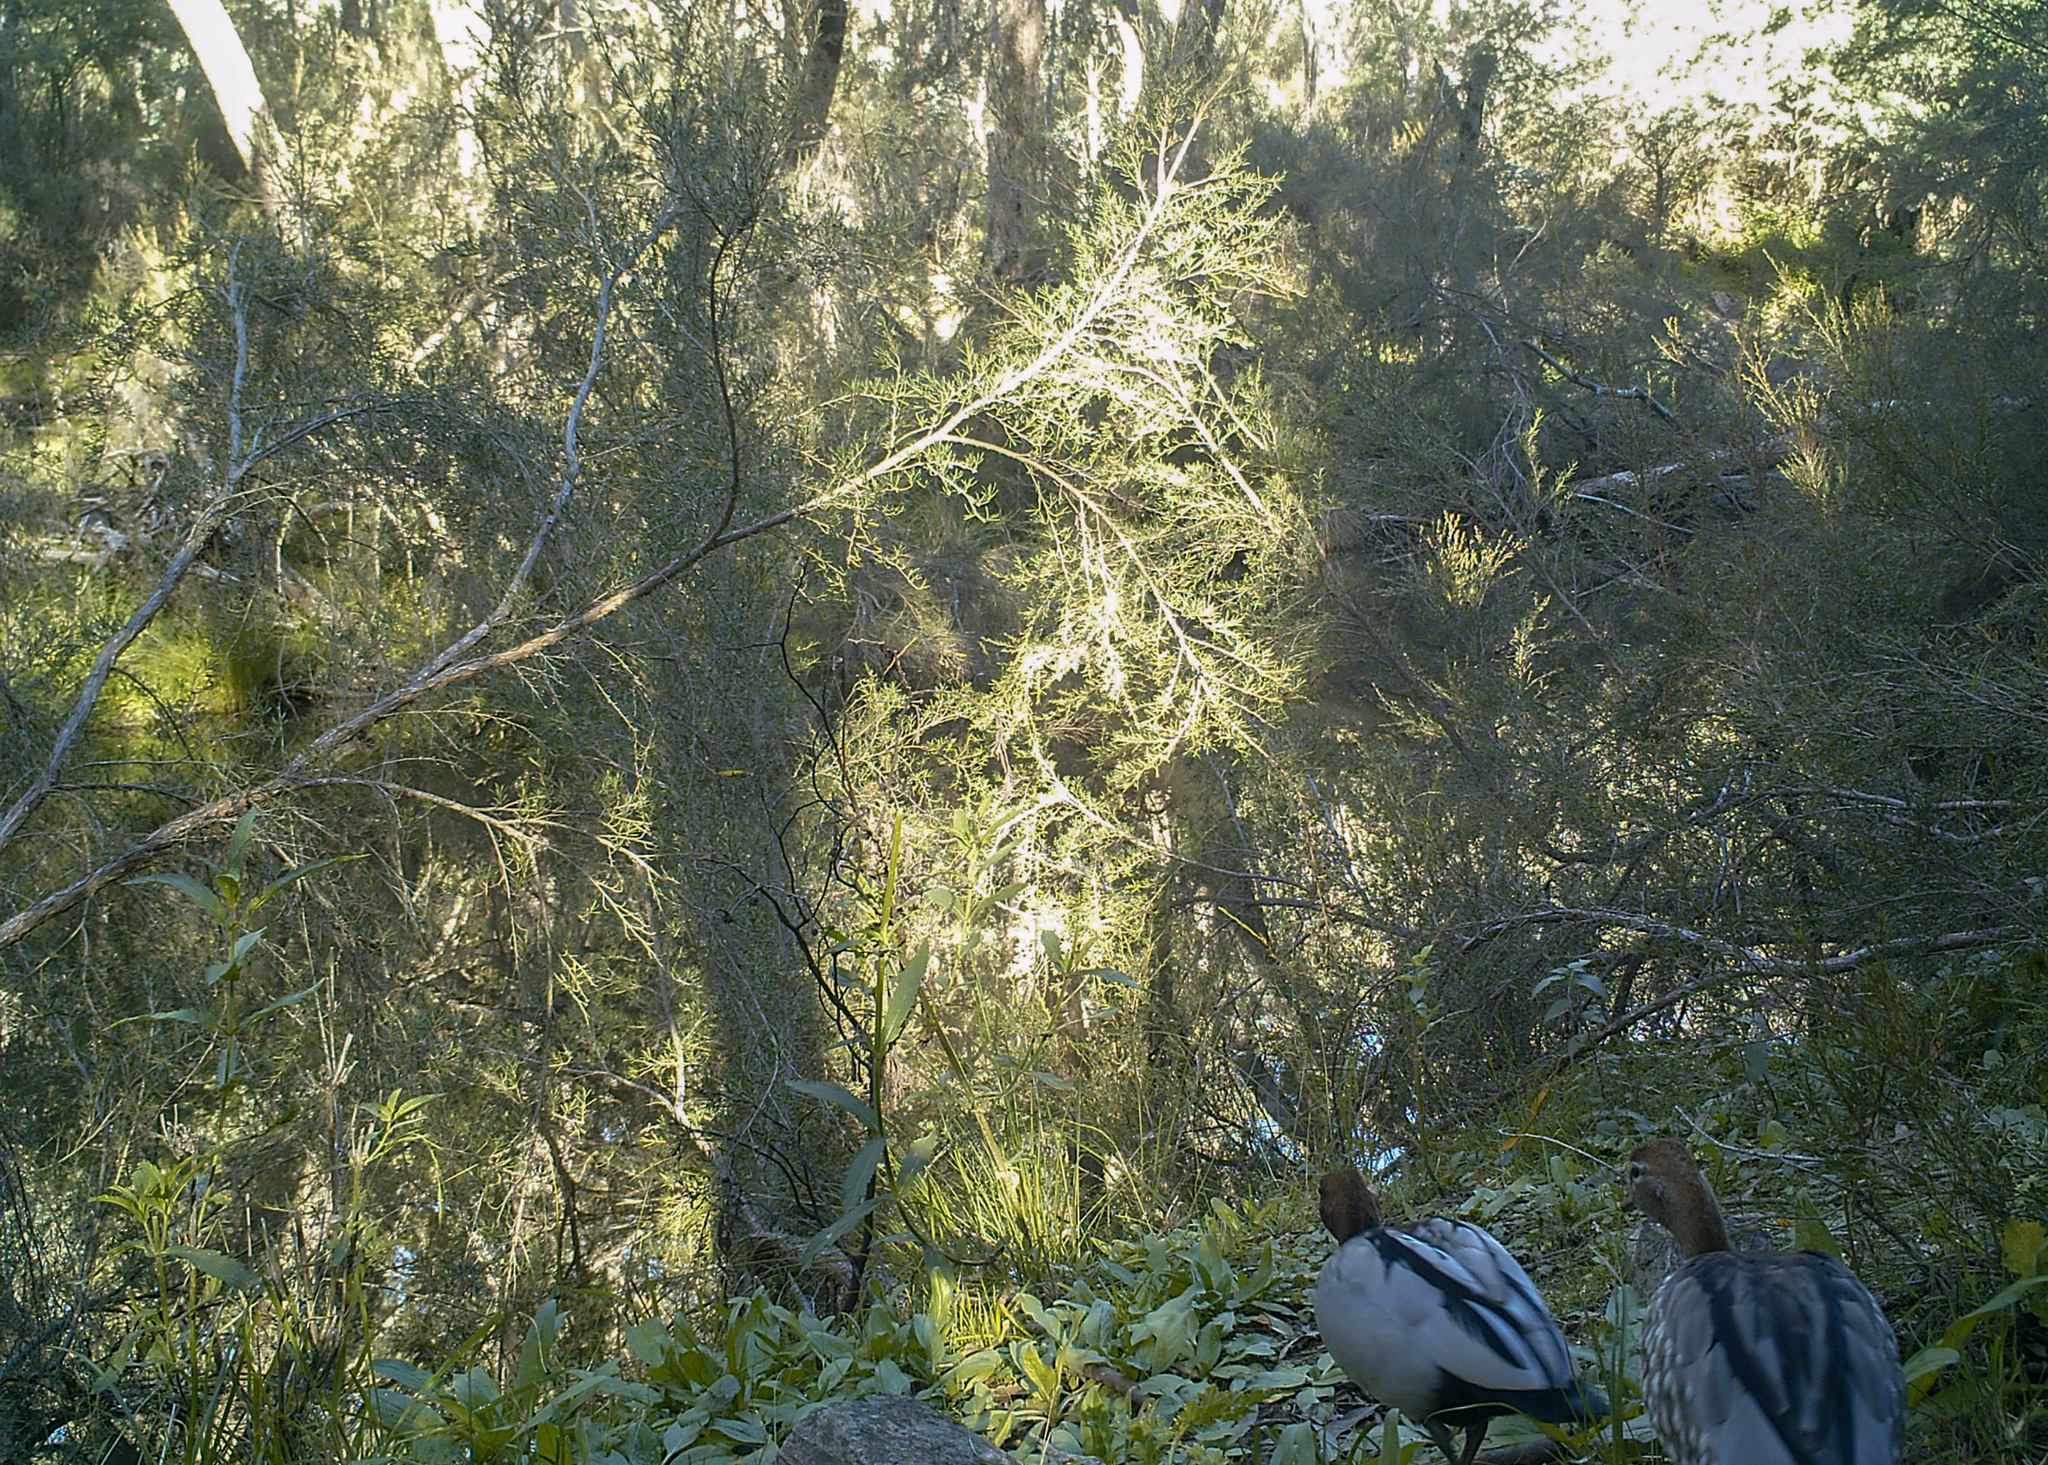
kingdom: Animalia
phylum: Chordata
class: Aves
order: Anseriformes
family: Anatidae
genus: Chenonetta
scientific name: Chenonetta jubata
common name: Maned duck
